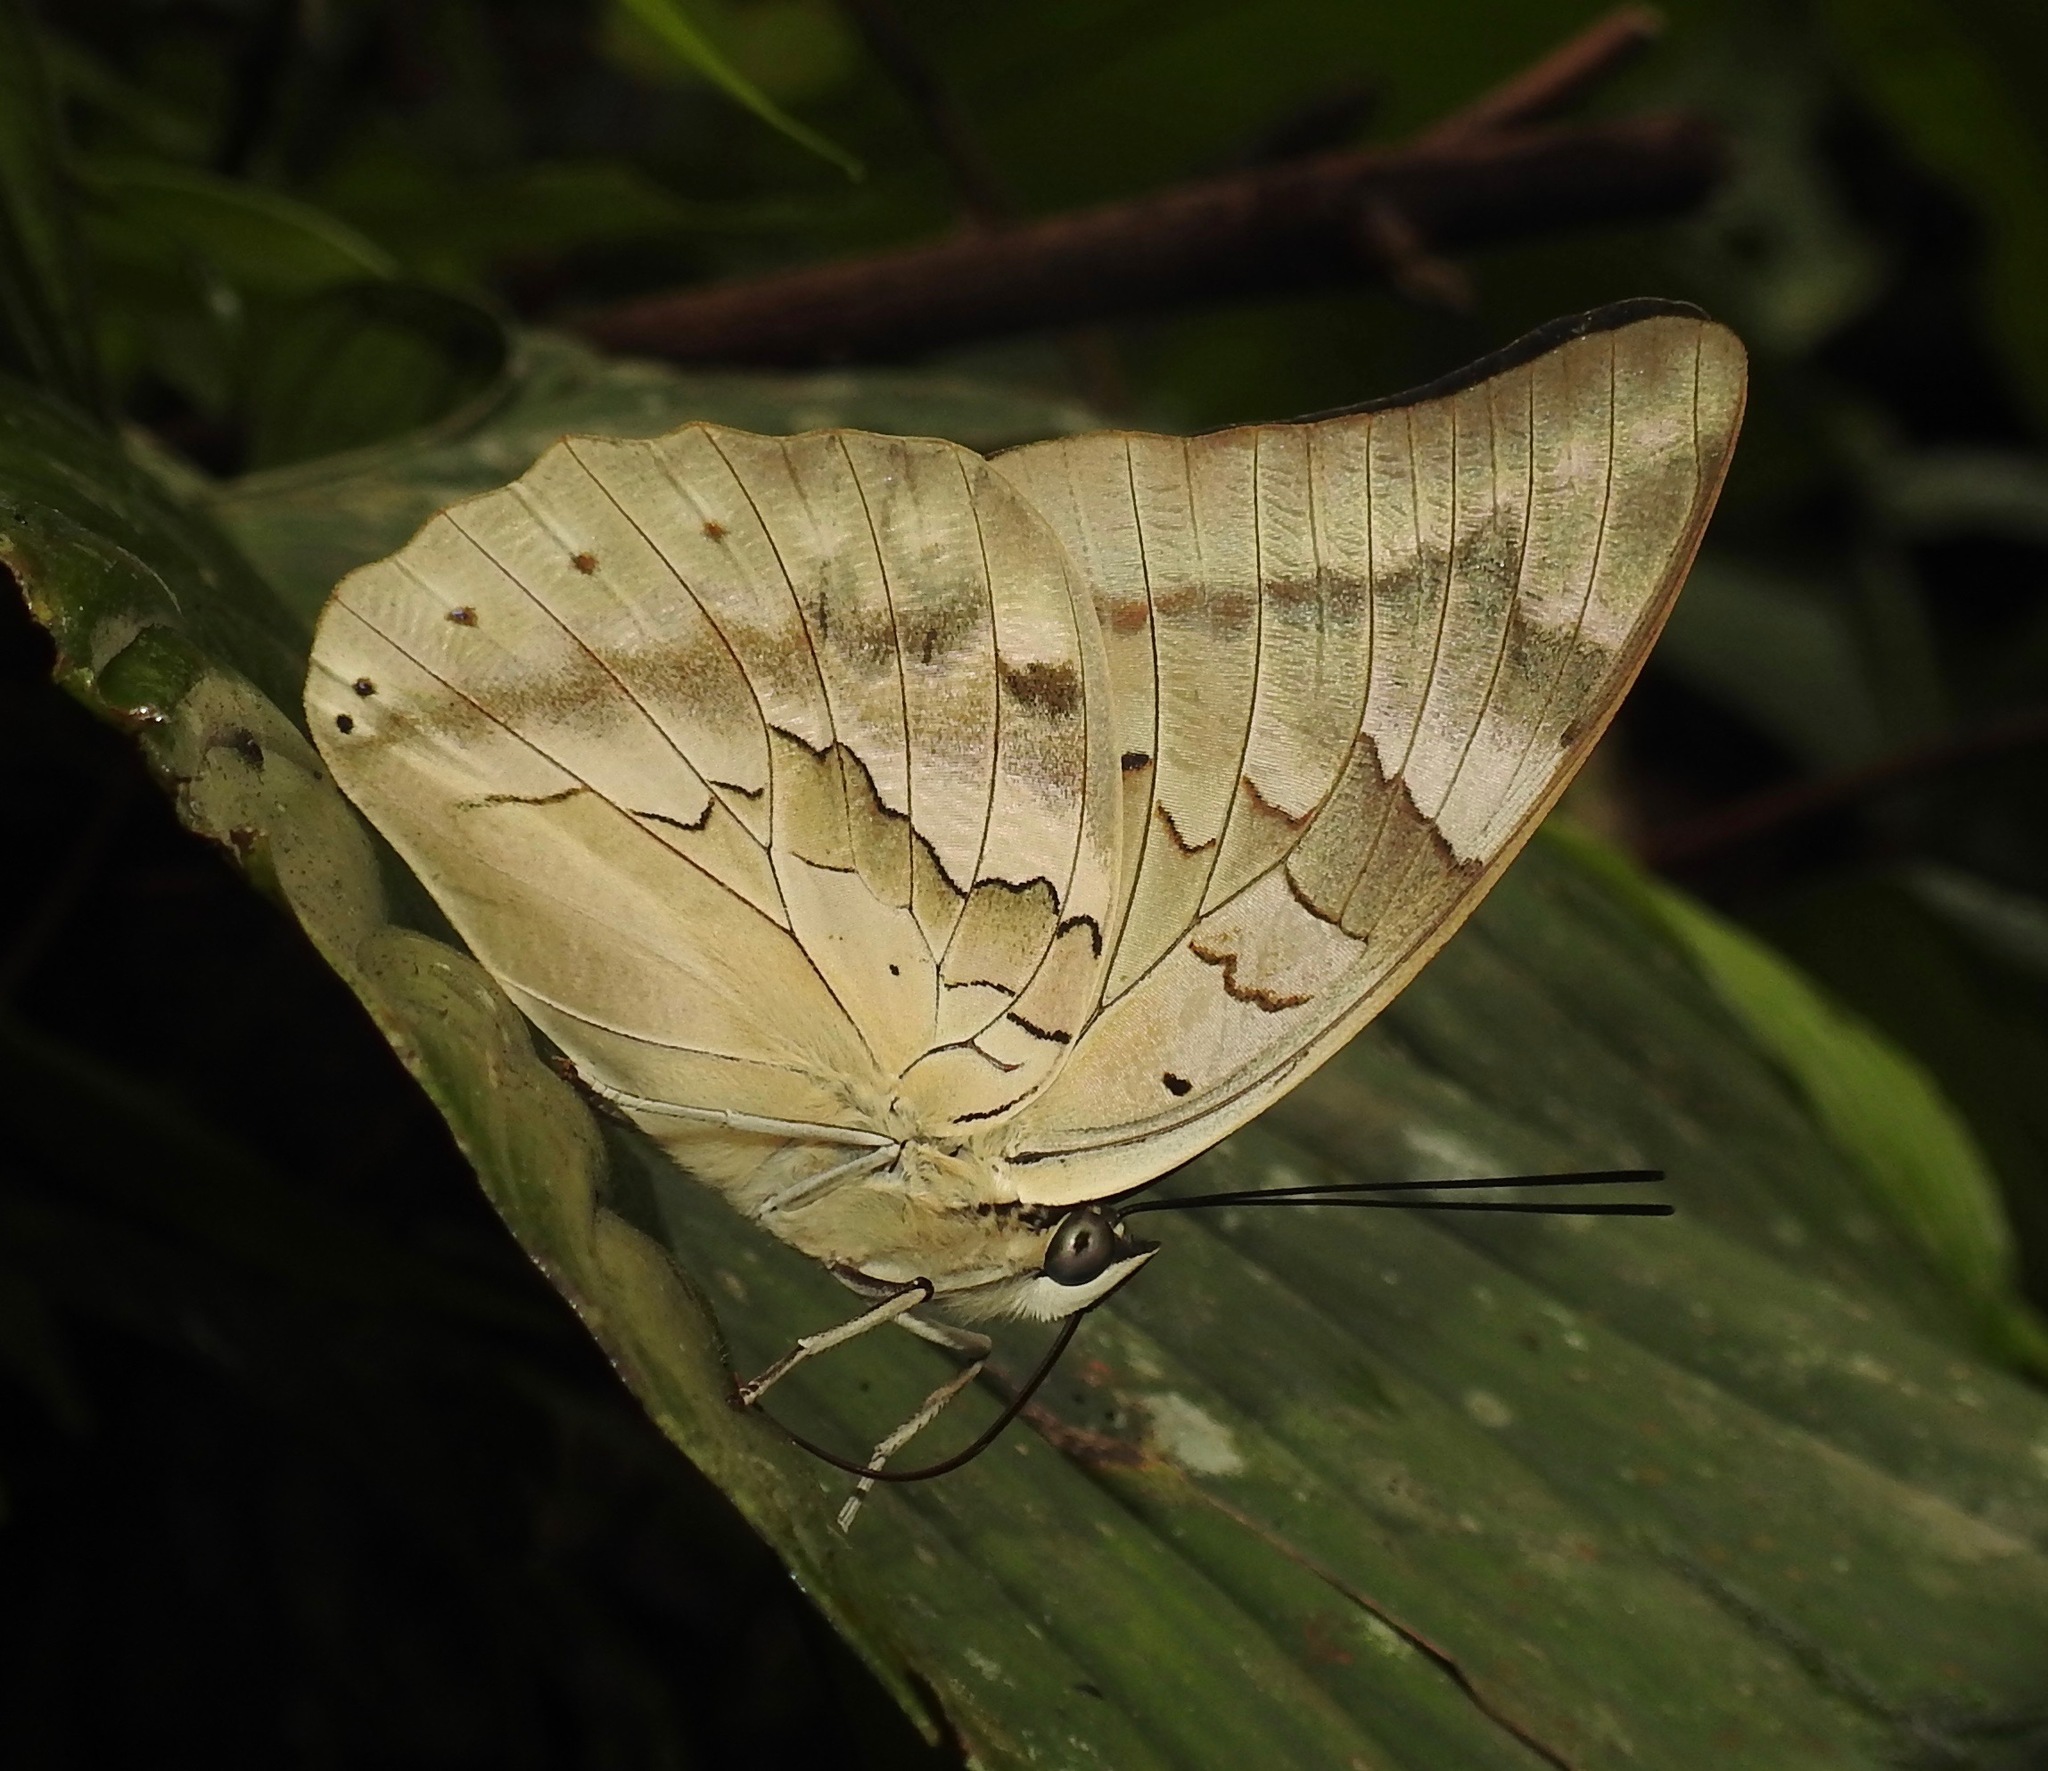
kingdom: Animalia
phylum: Arthropoda
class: Insecta
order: Lepidoptera
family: Nymphalidae
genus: Prepona
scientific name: Prepona Archaeoprepona camilla
